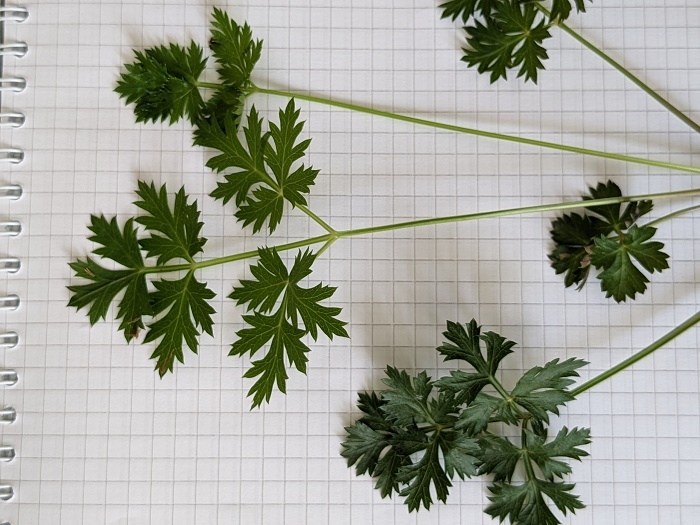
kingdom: Plantae
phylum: Tracheophyta
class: Magnoliopsida
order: Apiales
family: Apiaceae
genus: Kitagawia
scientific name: Kitagawia terebinthacea
